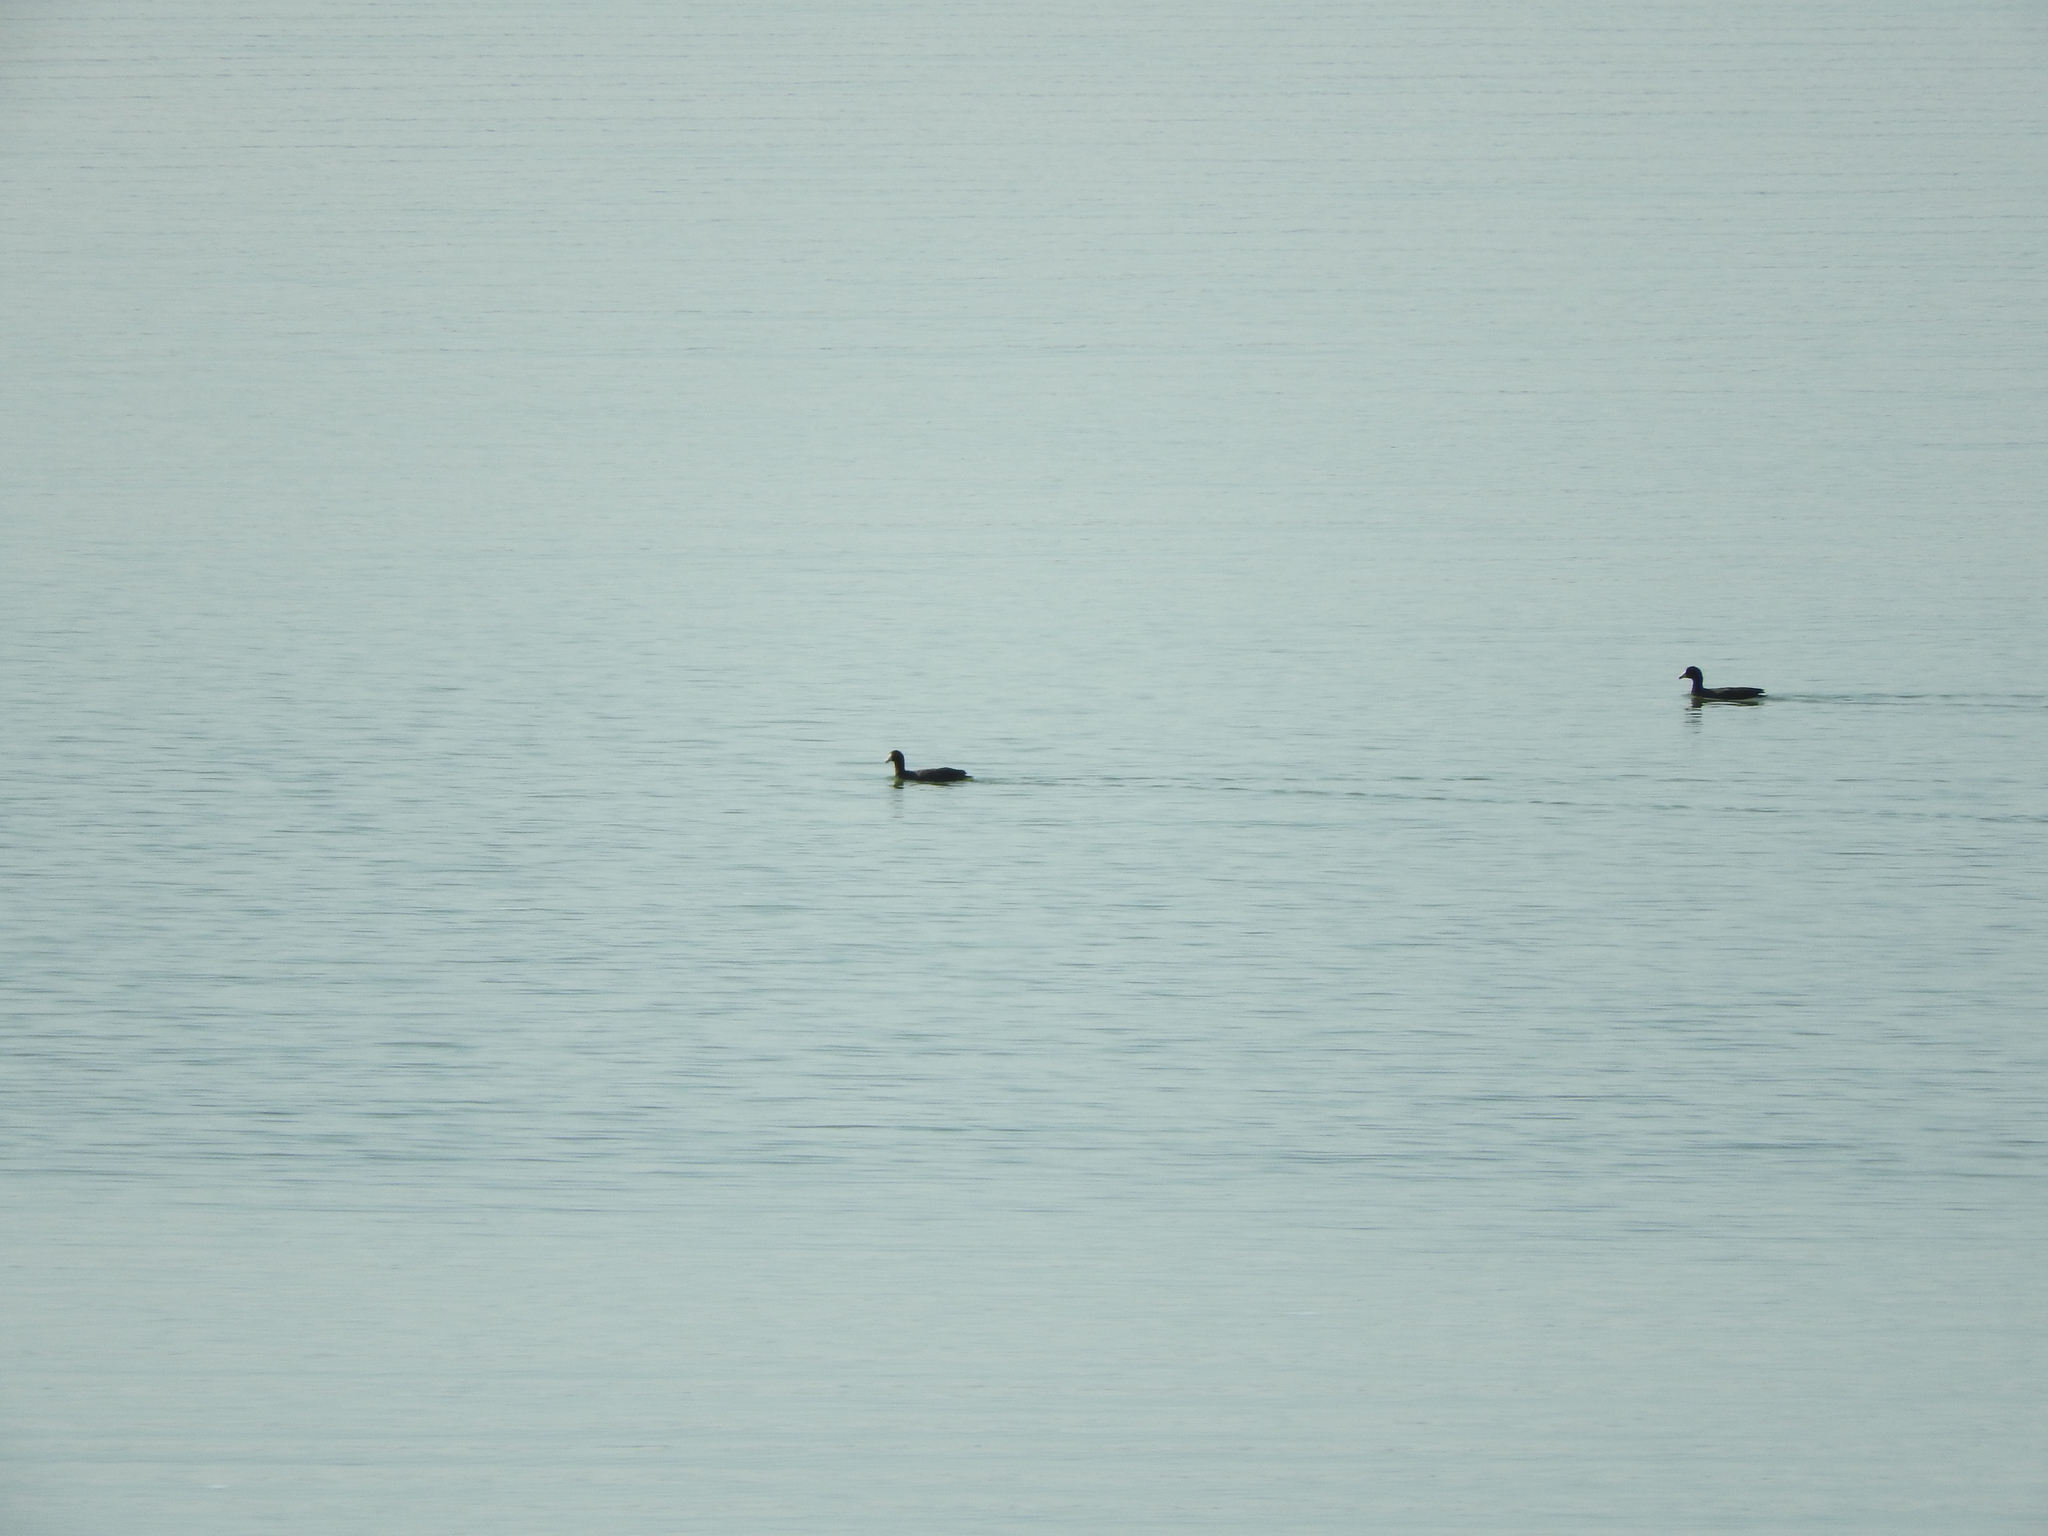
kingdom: Animalia
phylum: Chordata
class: Aves
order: Gruiformes
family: Rallidae
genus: Fulica
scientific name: Fulica americana
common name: American coot
